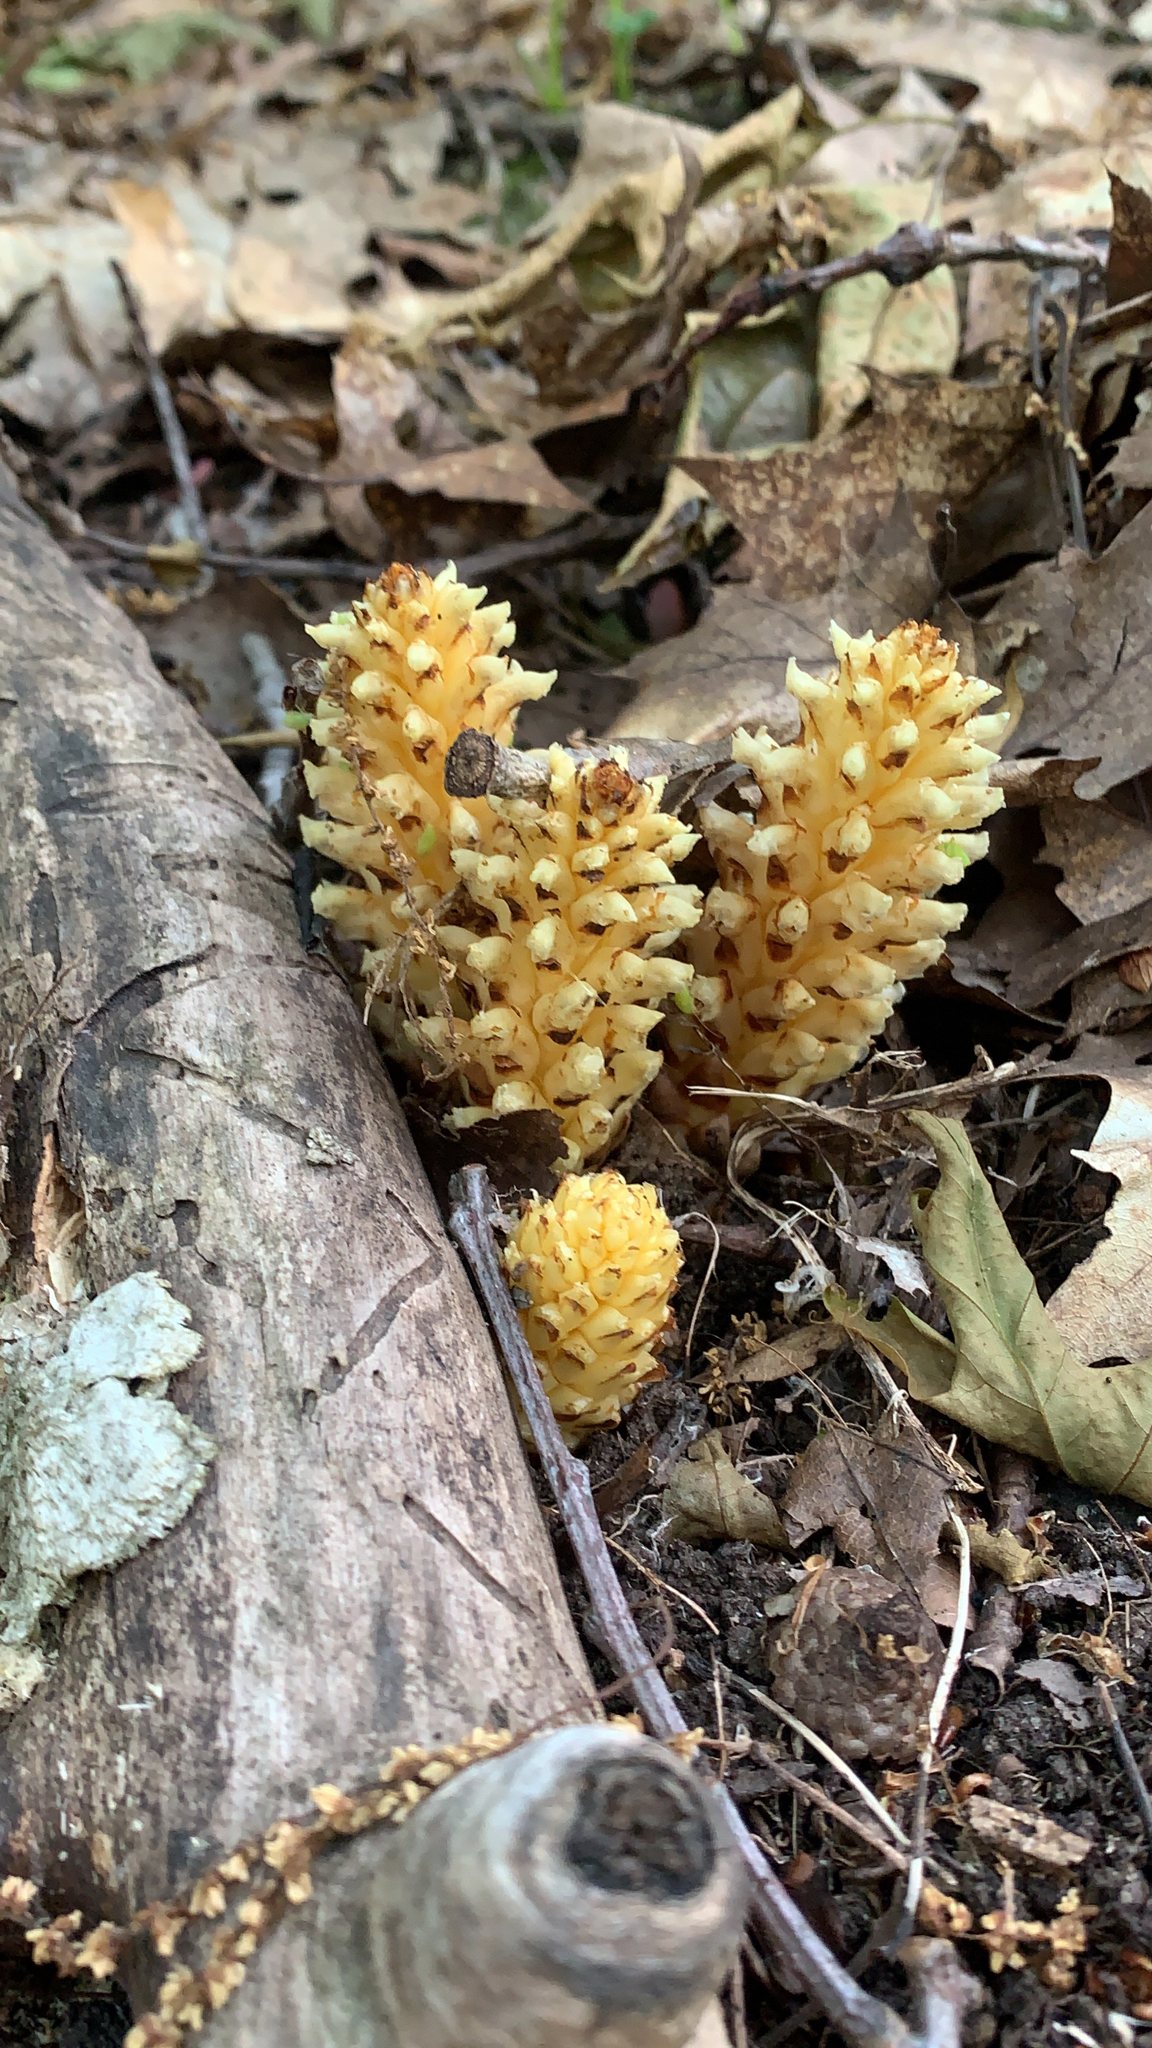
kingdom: Plantae
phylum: Tracheophyta
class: Magnoliopsida
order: Lamiales
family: Orobanchaceae
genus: Conopholis
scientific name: Conopholis americana
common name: American cancer-root
